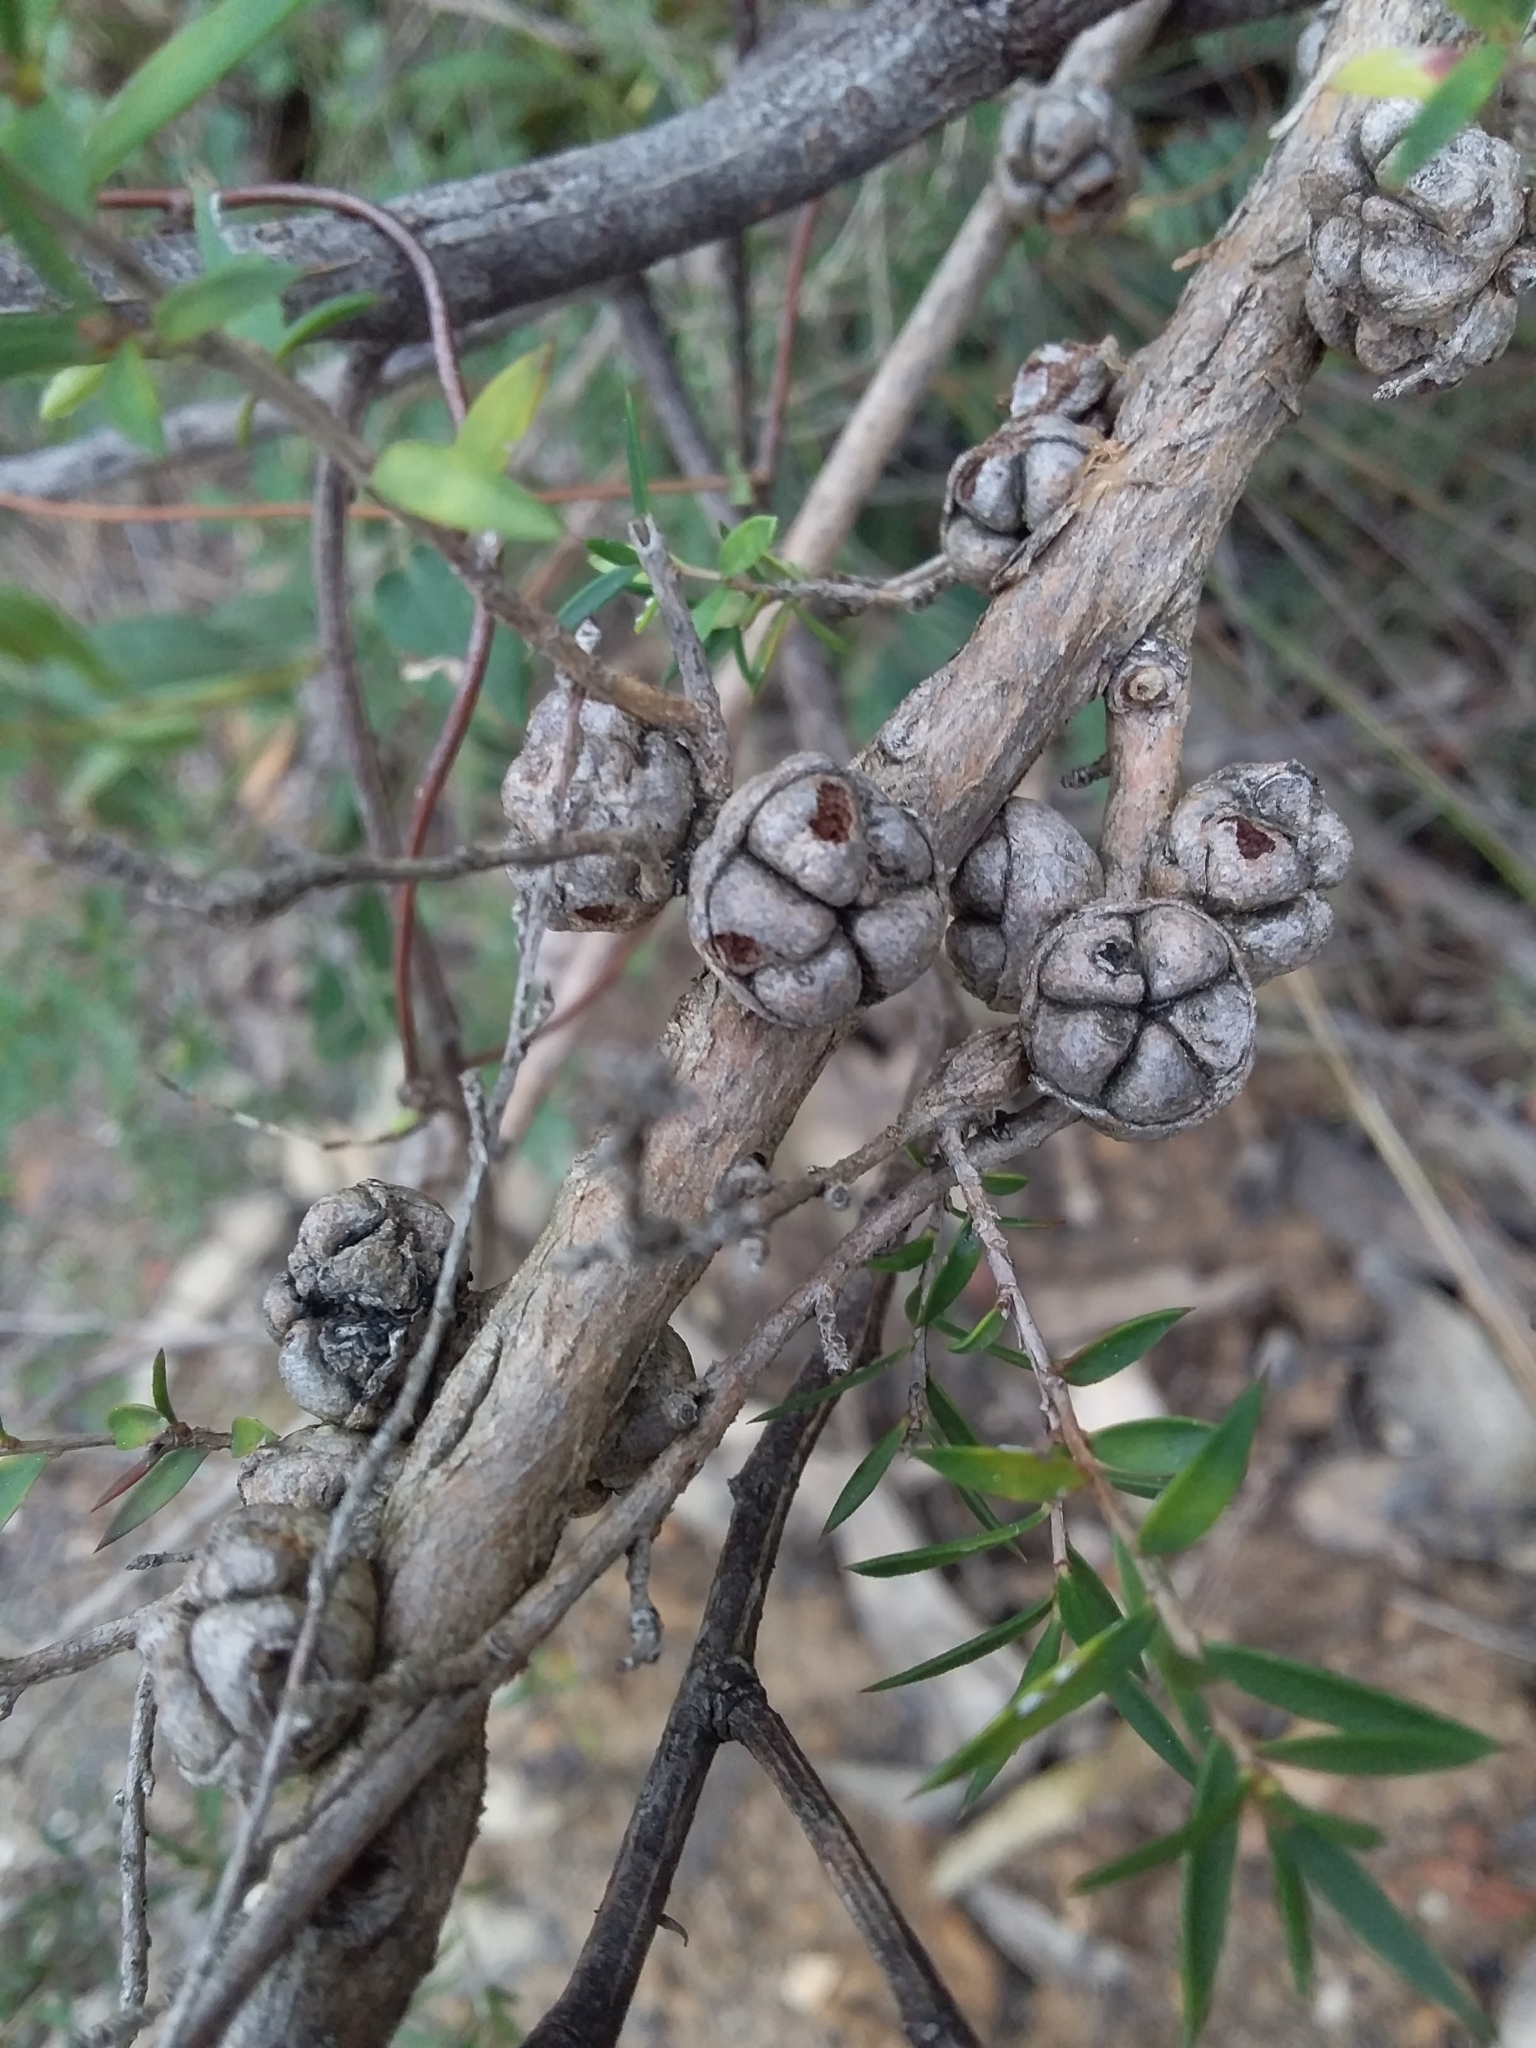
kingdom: Plantae
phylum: Tracheophyta
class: Magnoliopsida
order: Myrtales
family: Myrtaceae
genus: Leptospermum
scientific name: Leptospermum continentale
